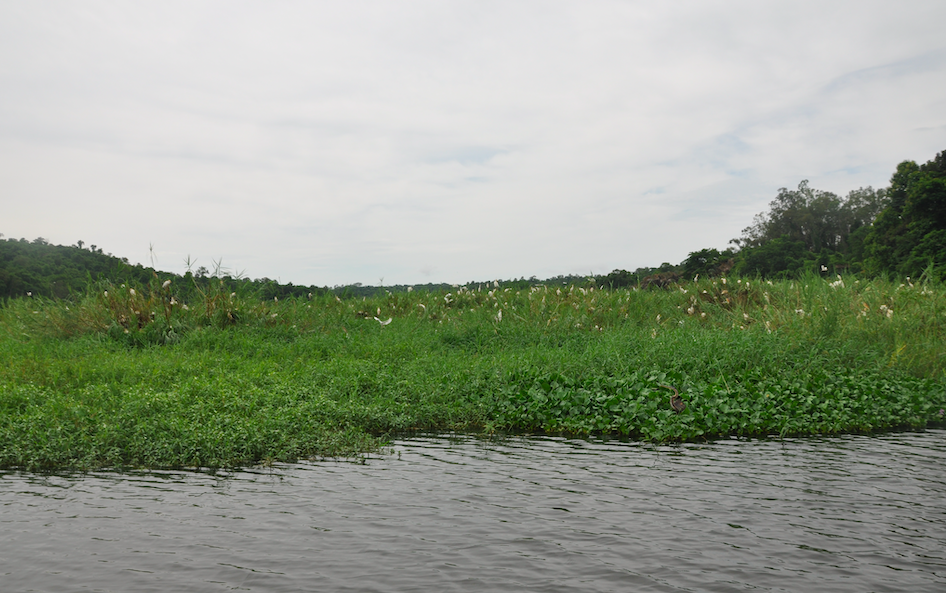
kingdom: Animalia
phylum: Chordata
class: Aves
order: Pelecaniformes
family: Ardeidae
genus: Ardea
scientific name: Ardea purpurea
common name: Purple heron
